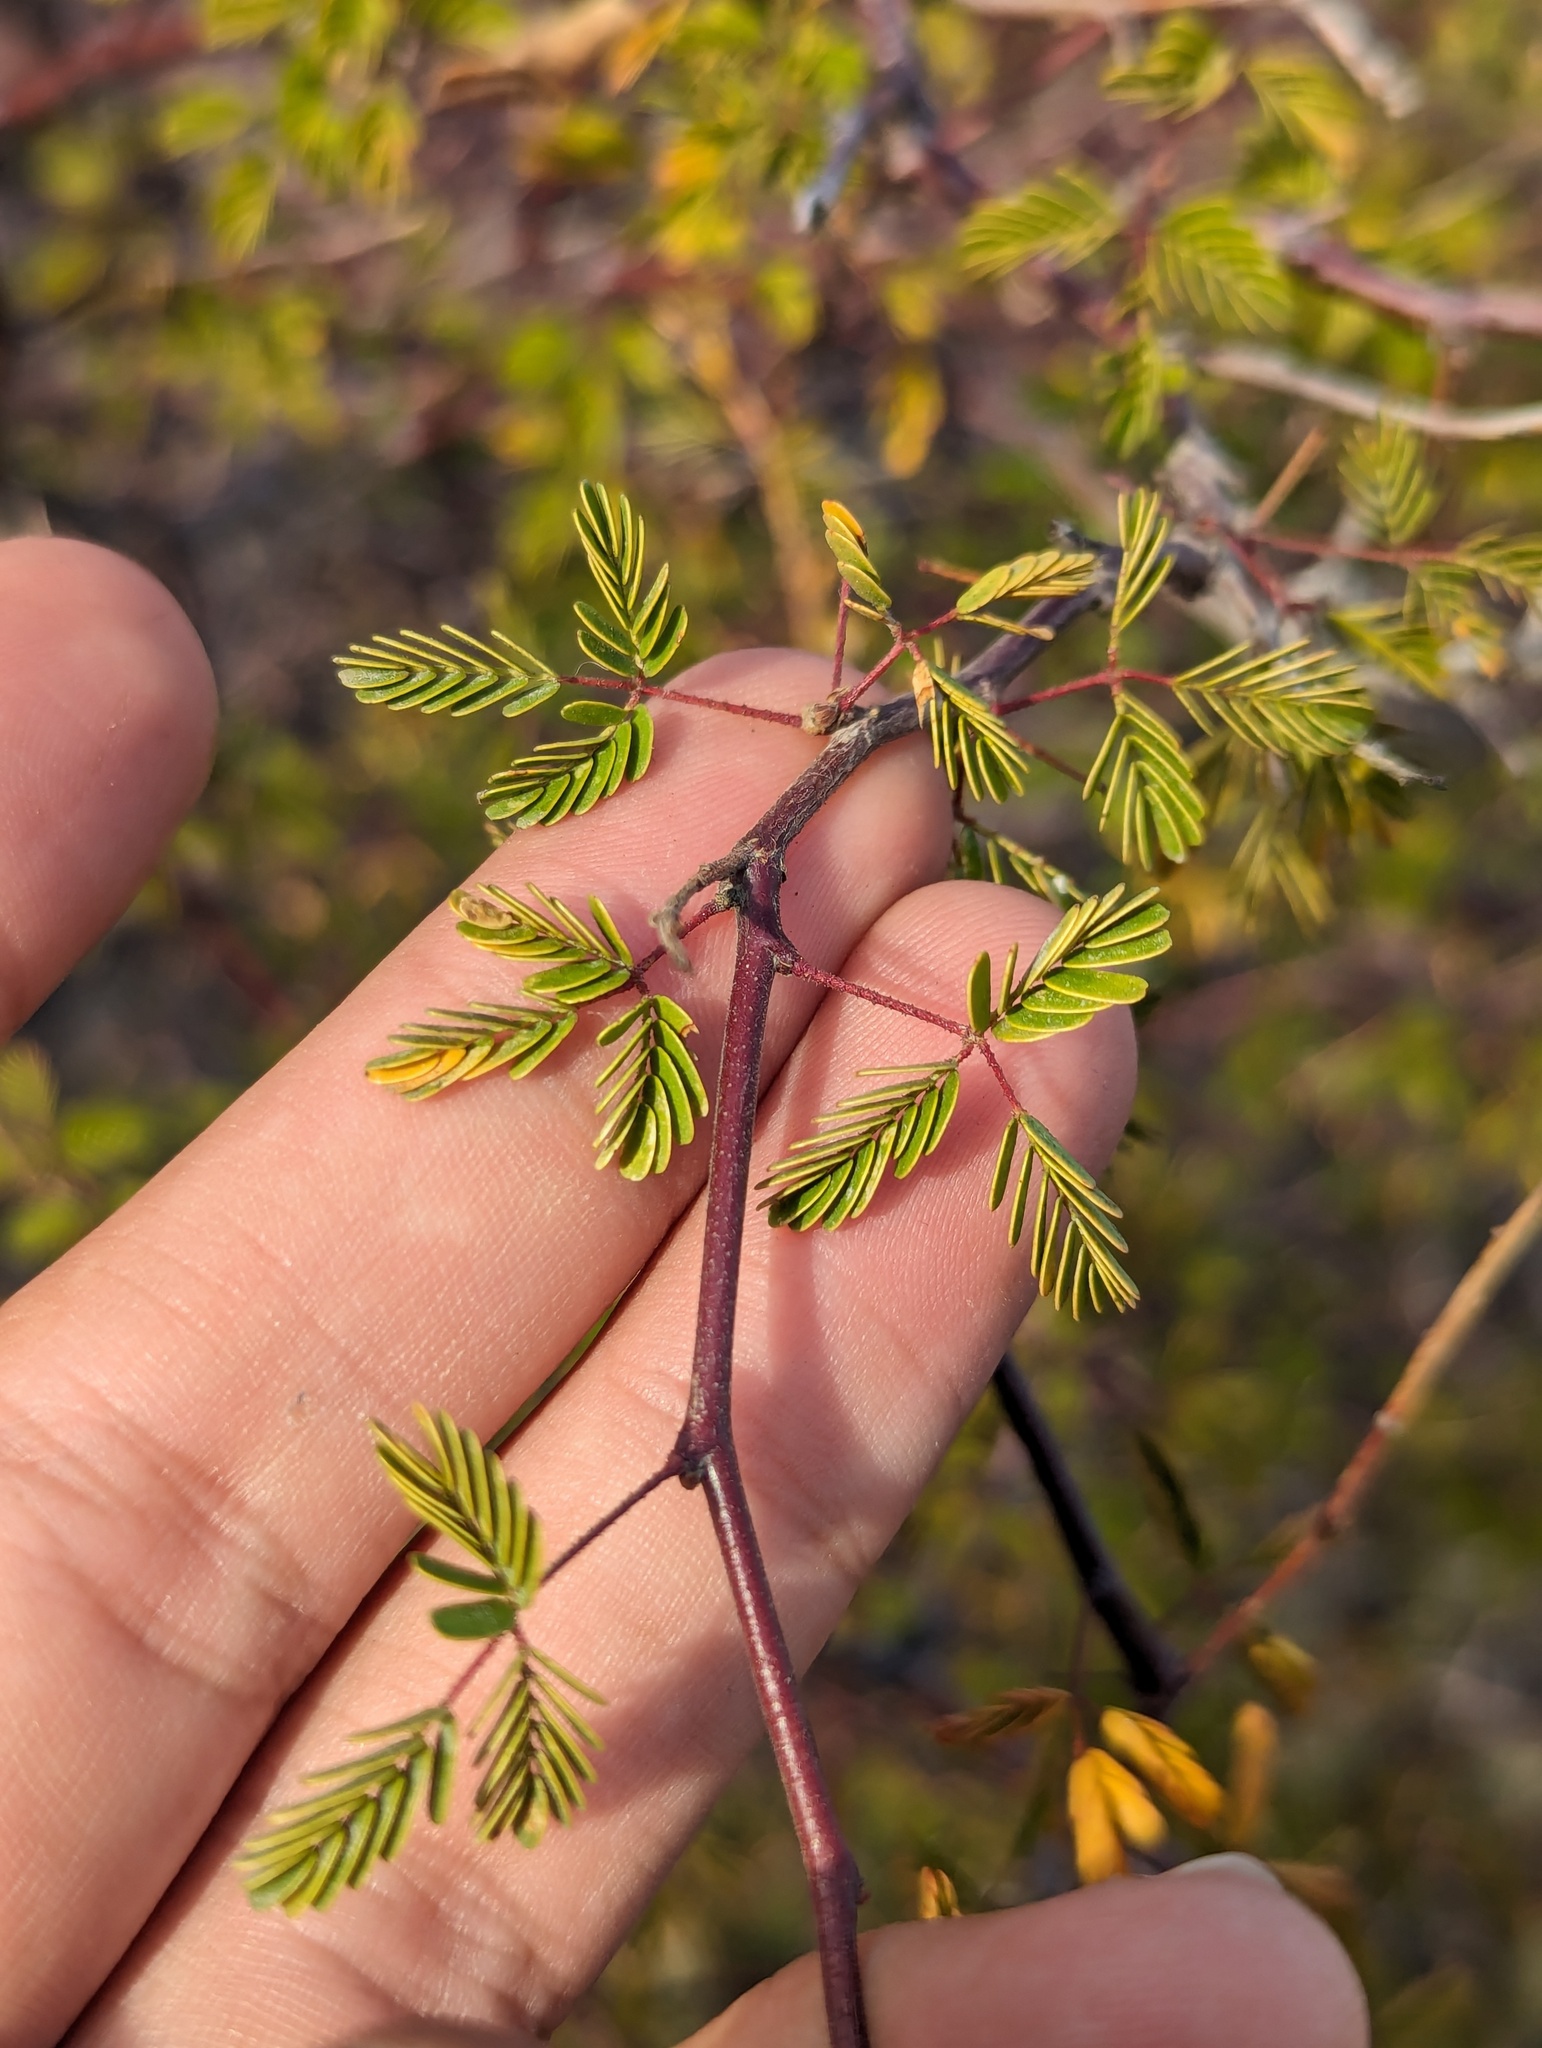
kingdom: Plantae
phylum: Tracheophyta
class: Magnoliopsida
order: Fabales
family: Fabaceae
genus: Erythrostemon
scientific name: Erythrostemon placidus
